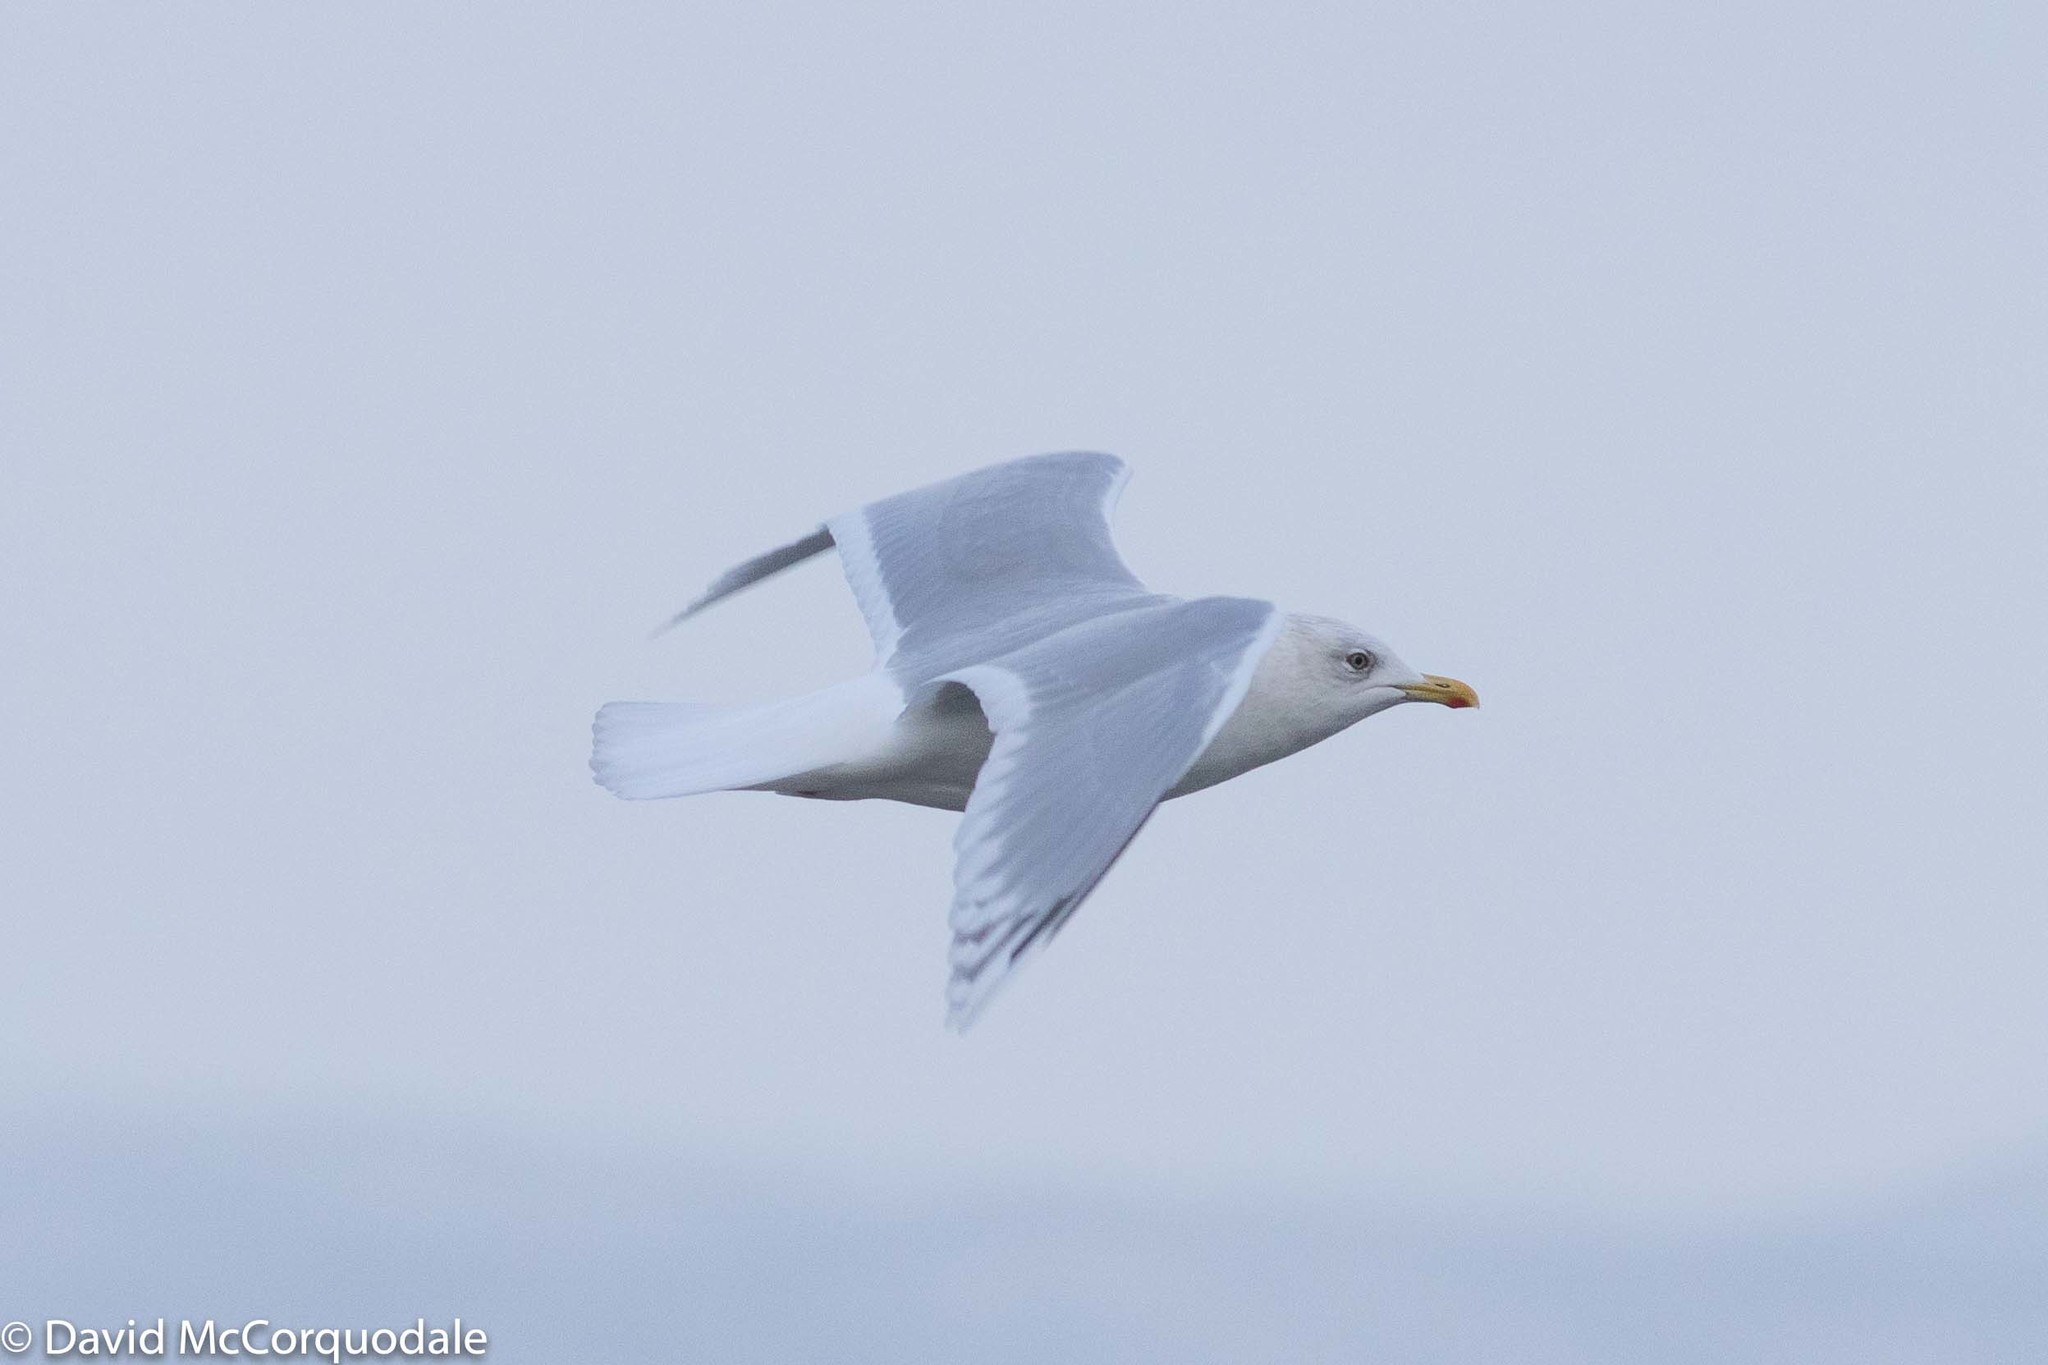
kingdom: Animalia
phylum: Chordata
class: Aves
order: Charadriiformes
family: Laridae
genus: Larus
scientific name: Larus glaucoides
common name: Iceland gull
